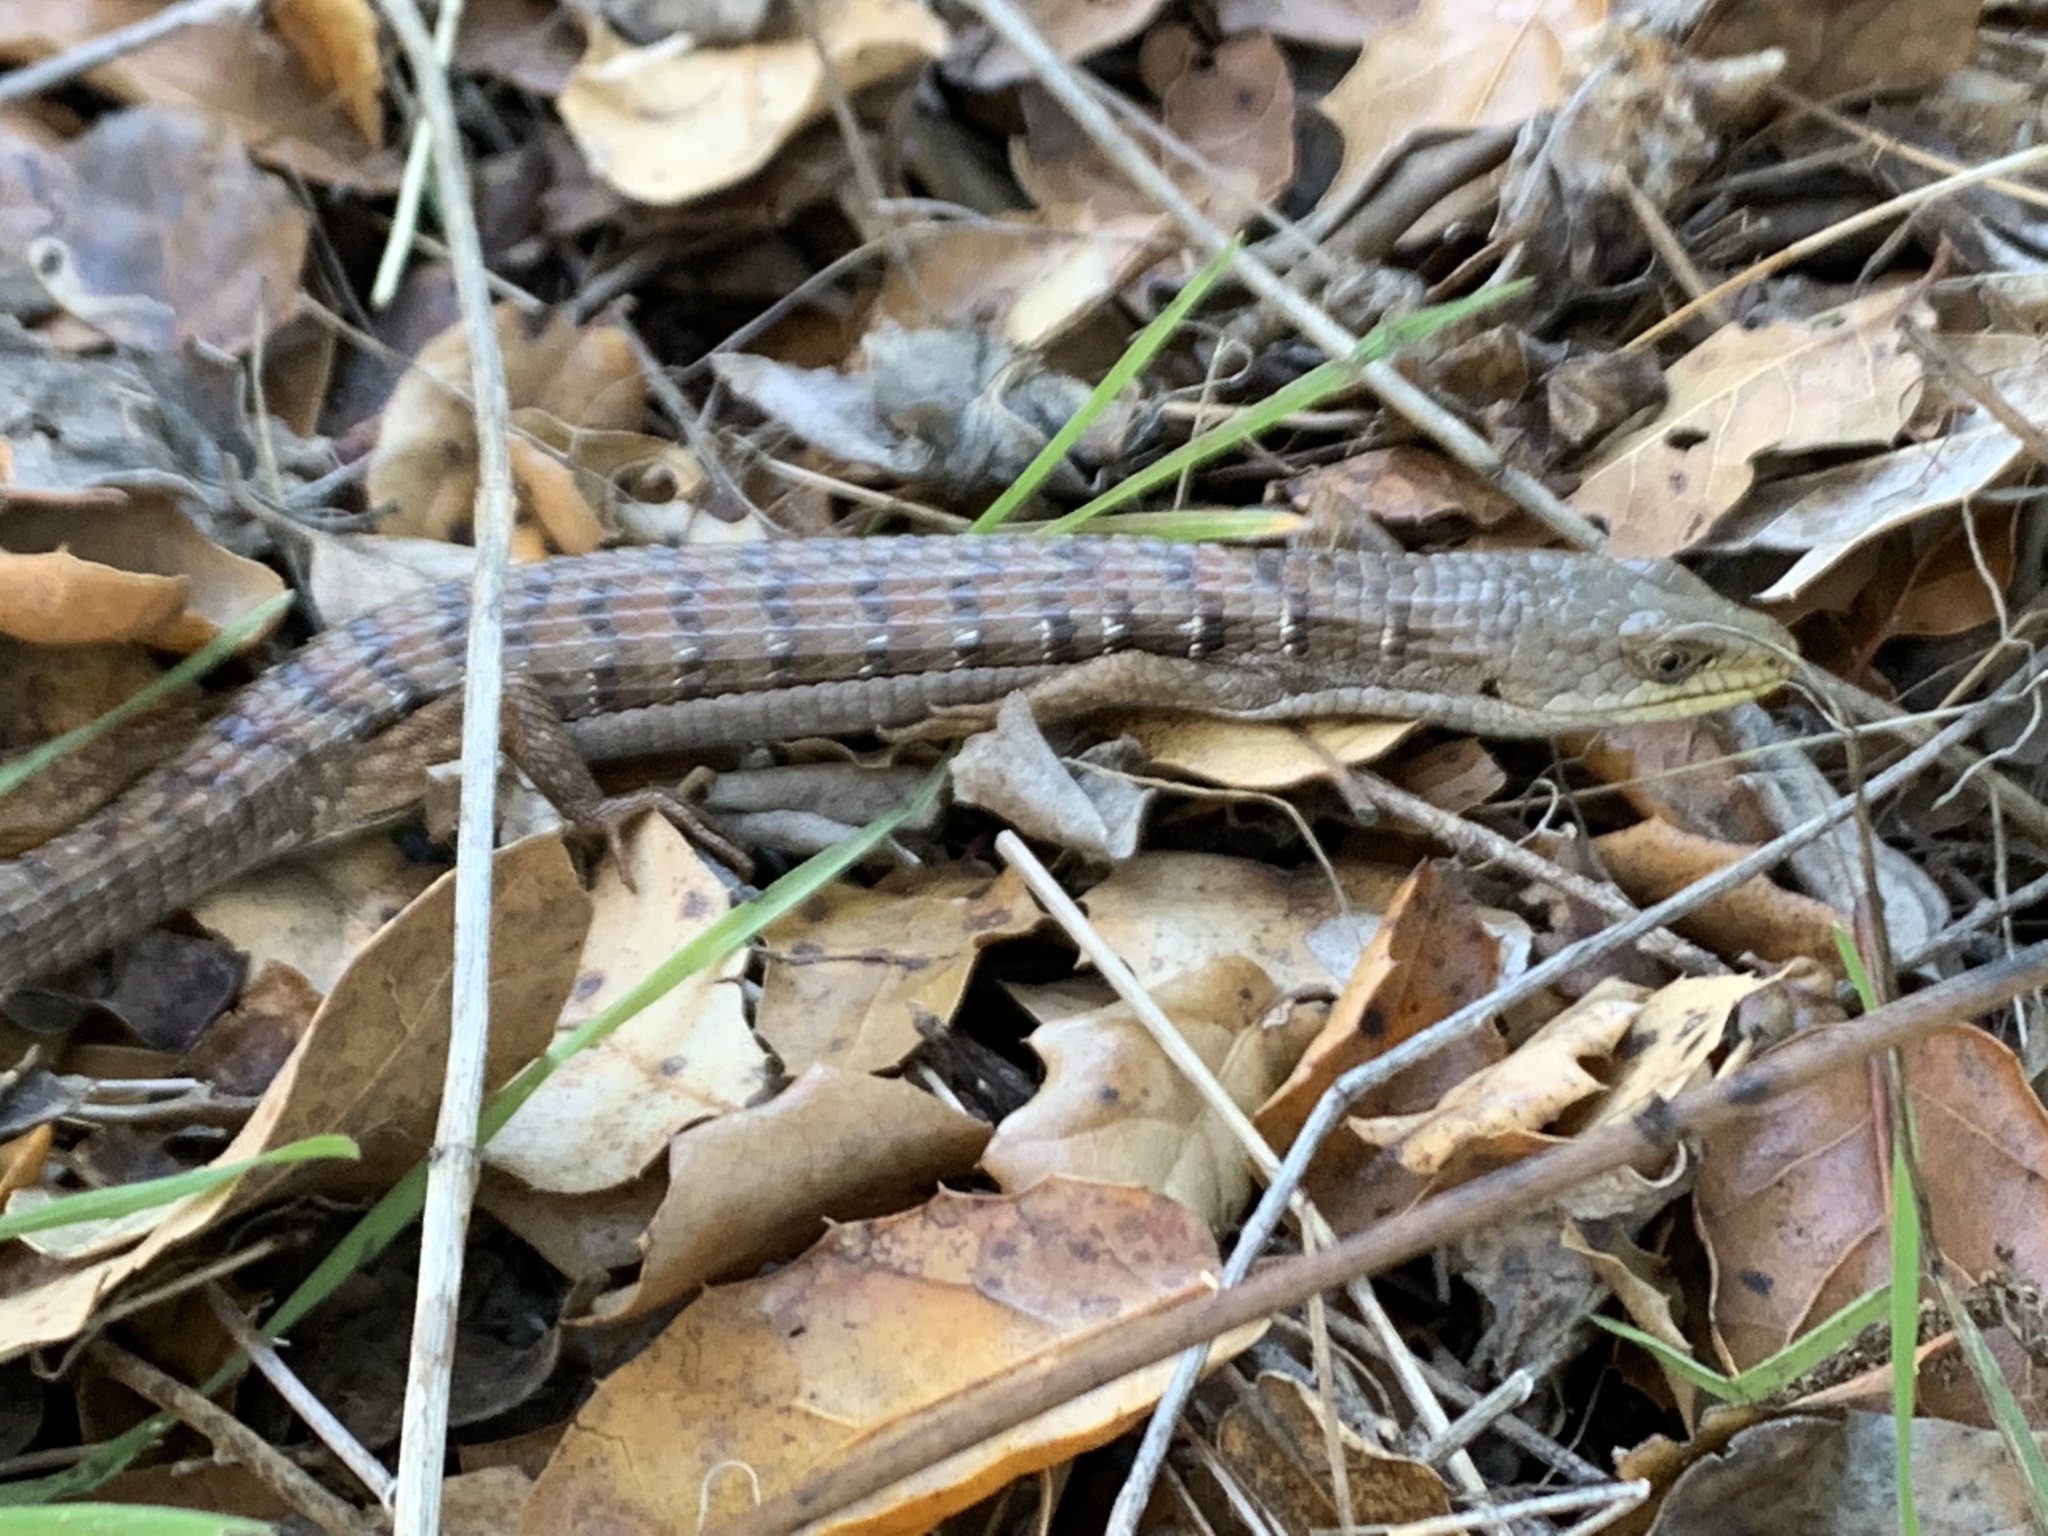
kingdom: Animalia
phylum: Chordata
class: Squamata
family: Anguidae
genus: Elgaria
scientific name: Elgaria multicarinata
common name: Southern alligator lizard
